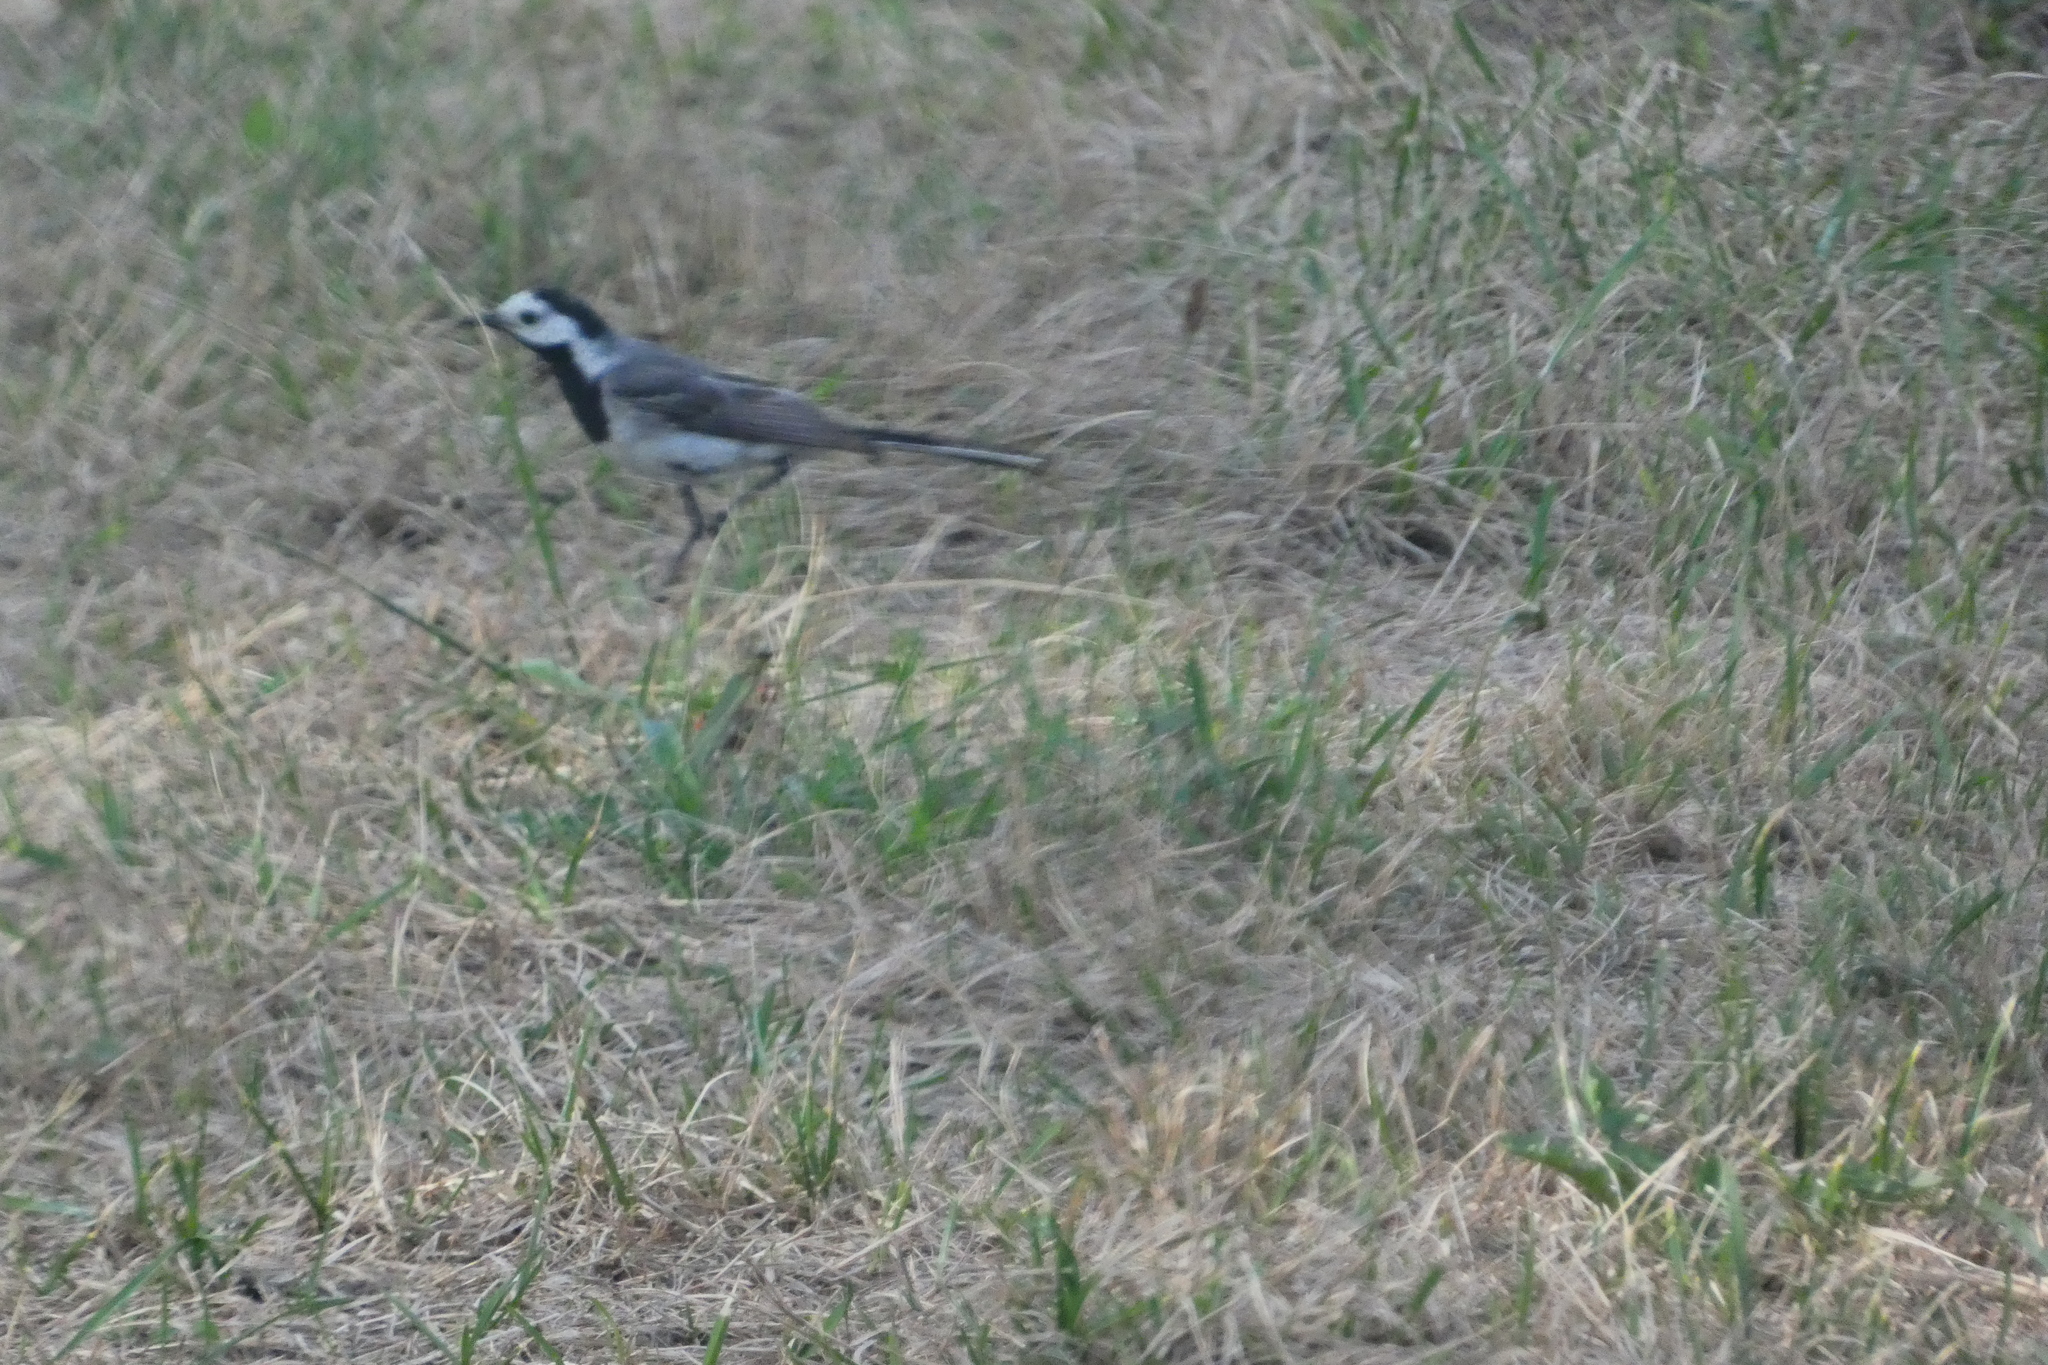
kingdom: Animalia
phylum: Chordata
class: Aves
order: Passeriformes
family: Motacillidae
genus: Motacilla
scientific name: Motacilla alba
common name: White wagtail
